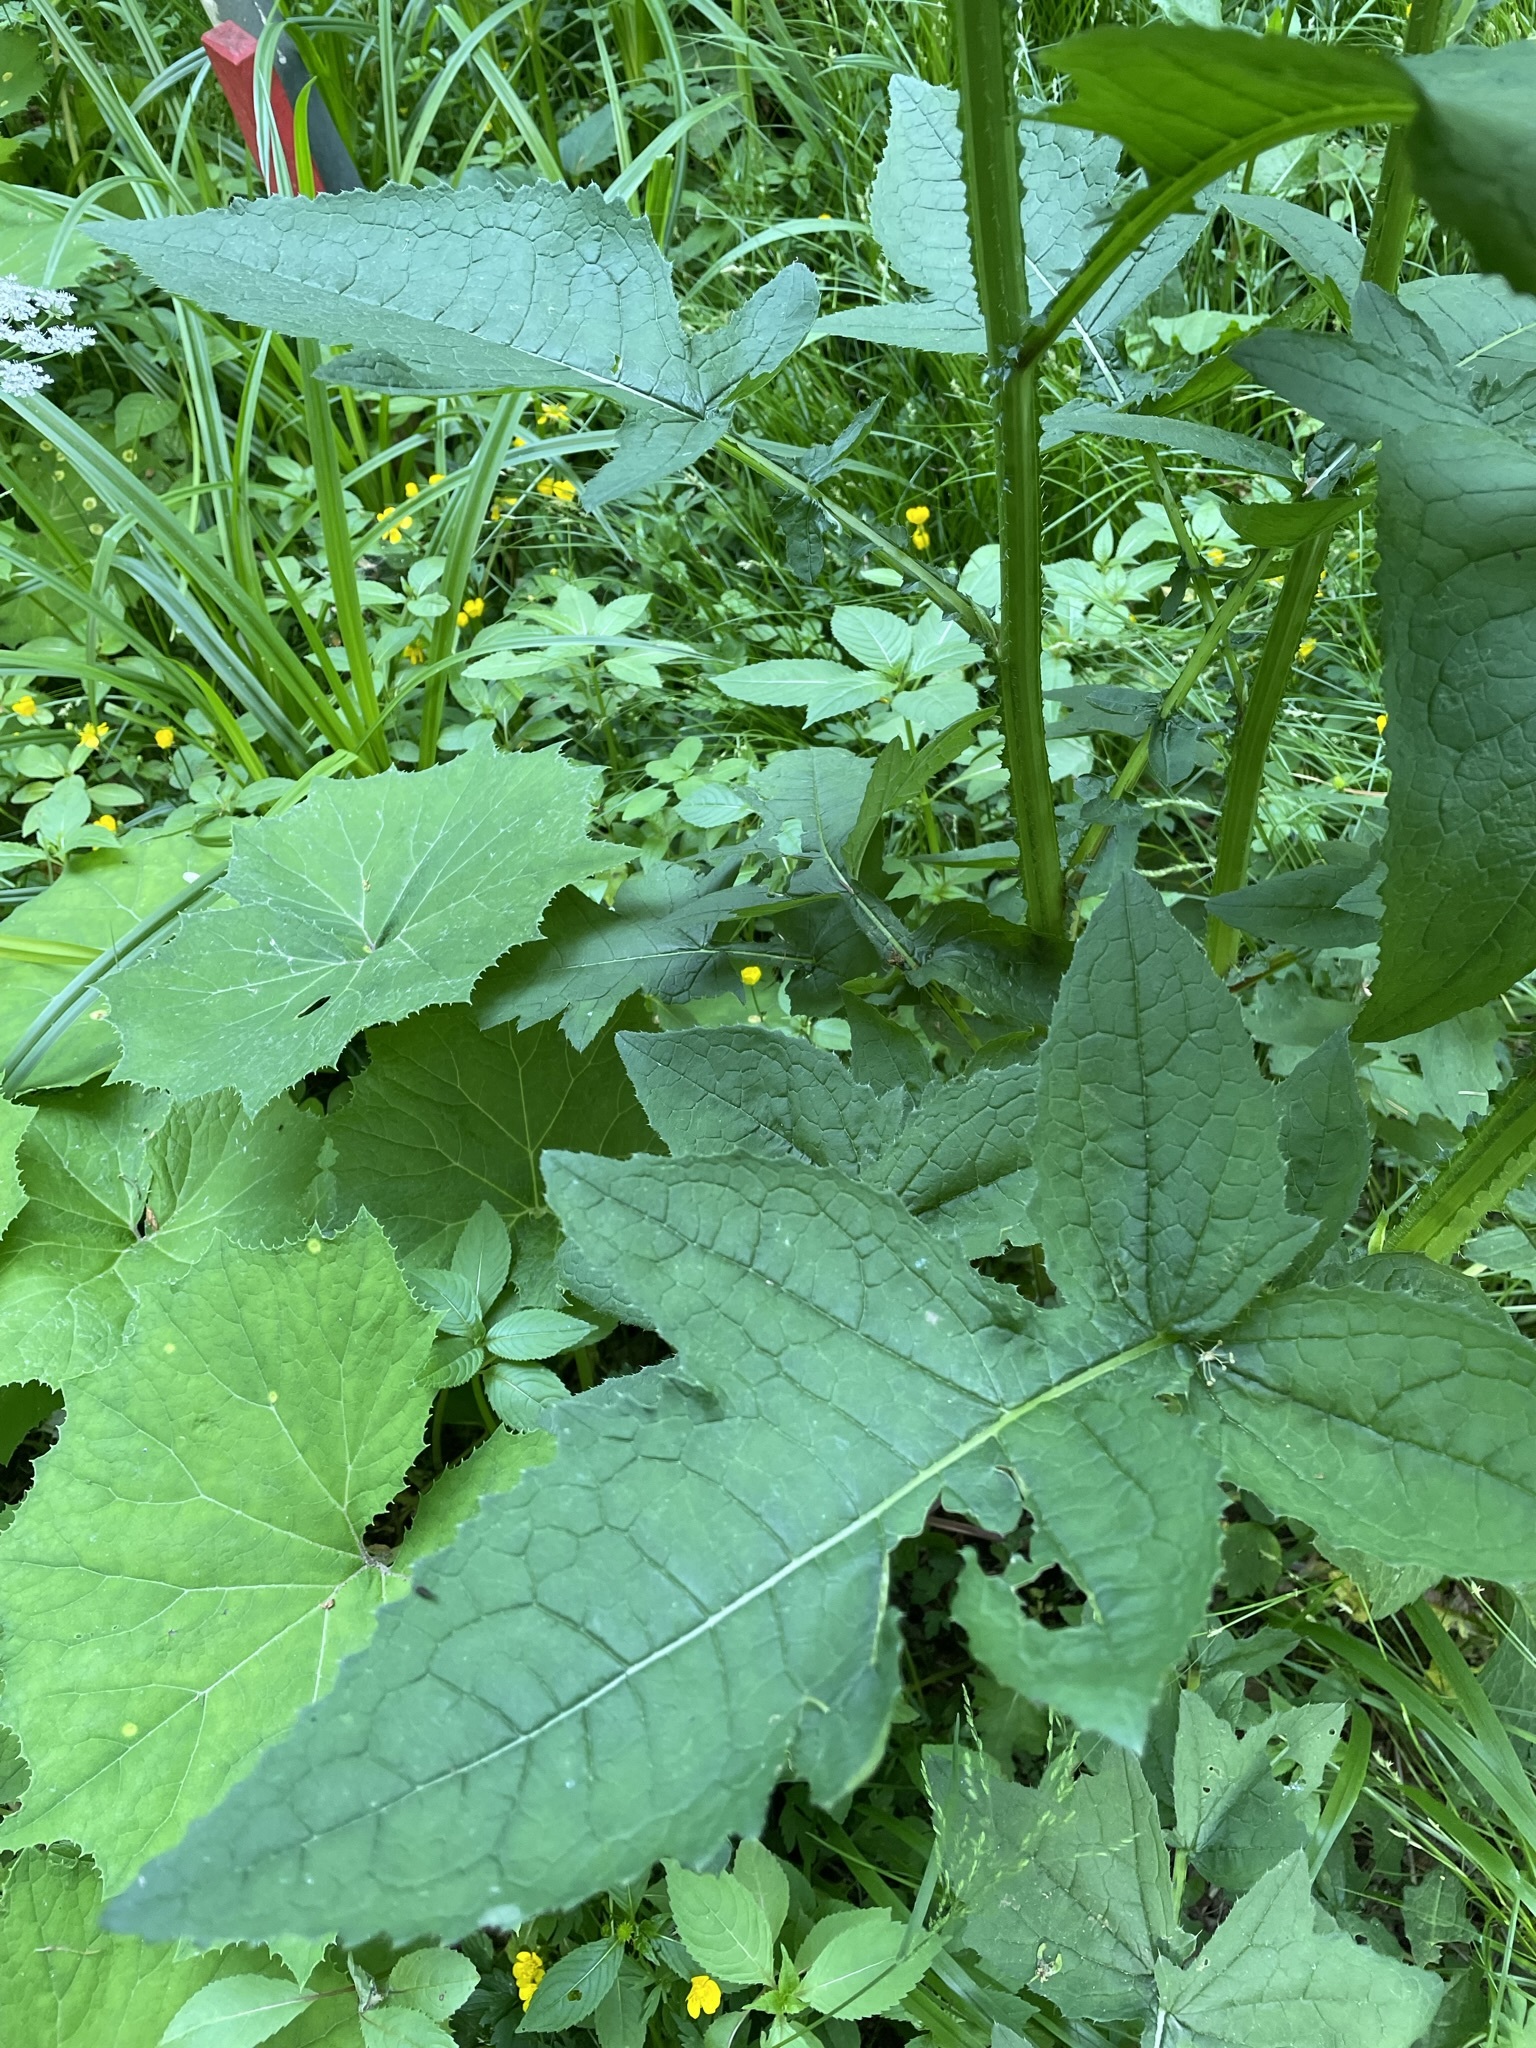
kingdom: Plantae
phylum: Tracheophyta
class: Magnoliopsida
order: Asterales
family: Asteraceae
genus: Carduus
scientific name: Carduus personata
